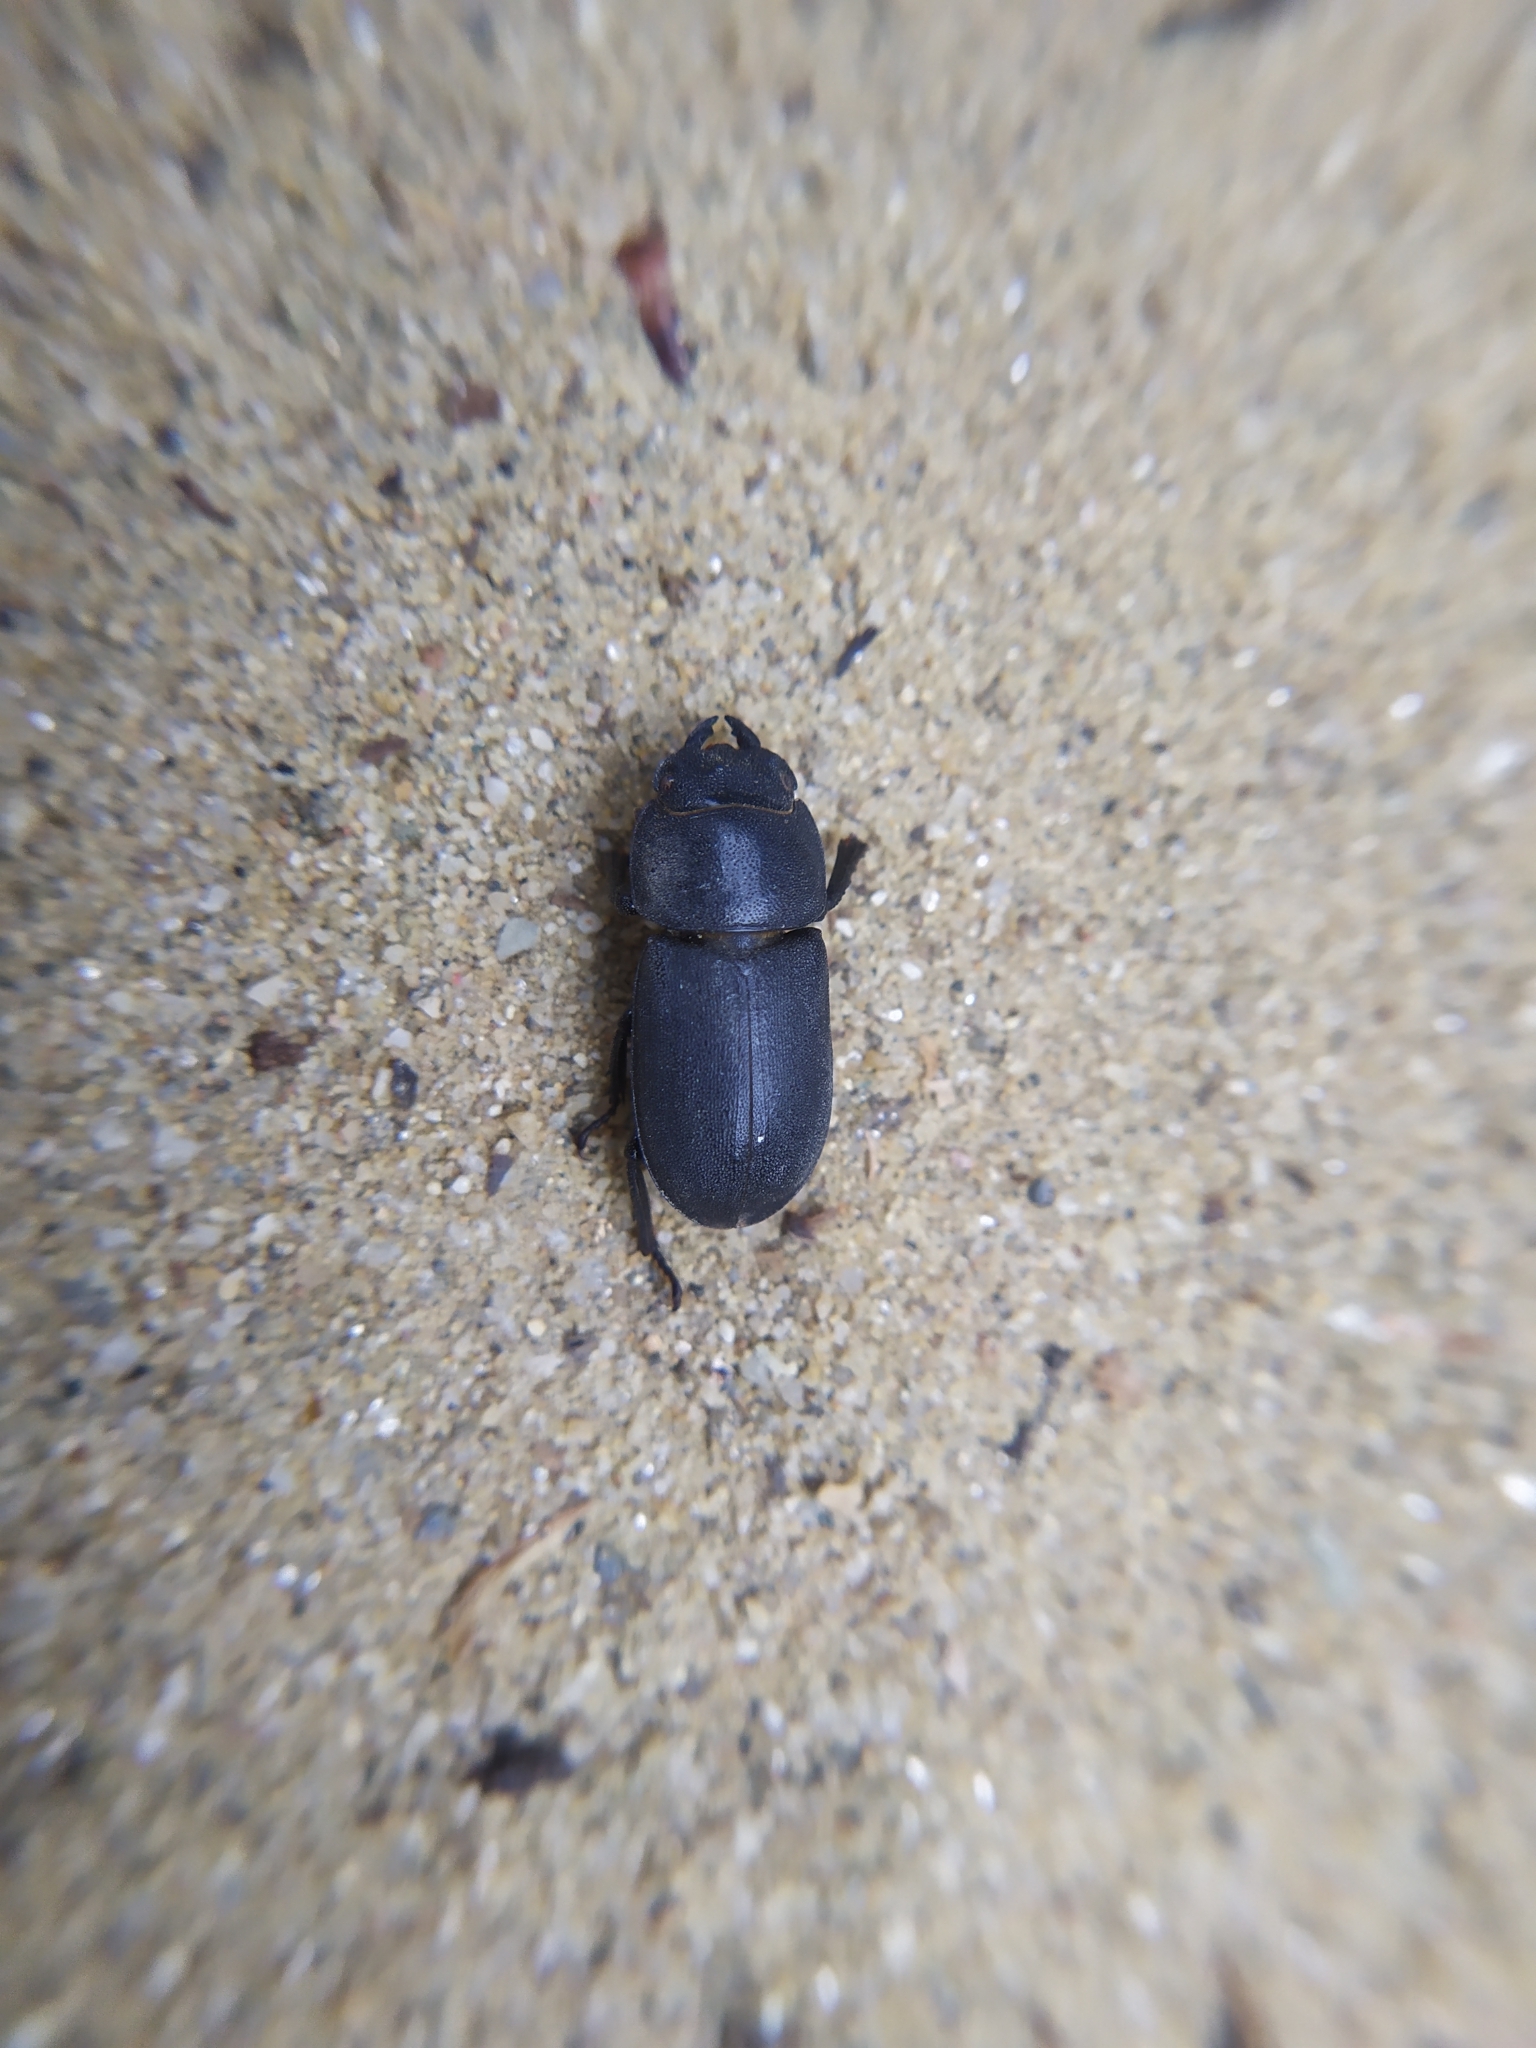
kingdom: Animalia
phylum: Arthropoda
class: Insecta
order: Coleoptera
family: Lucanidae
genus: Dorcus
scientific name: Dorcus parallelipipedus
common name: Lesser stag beetle
